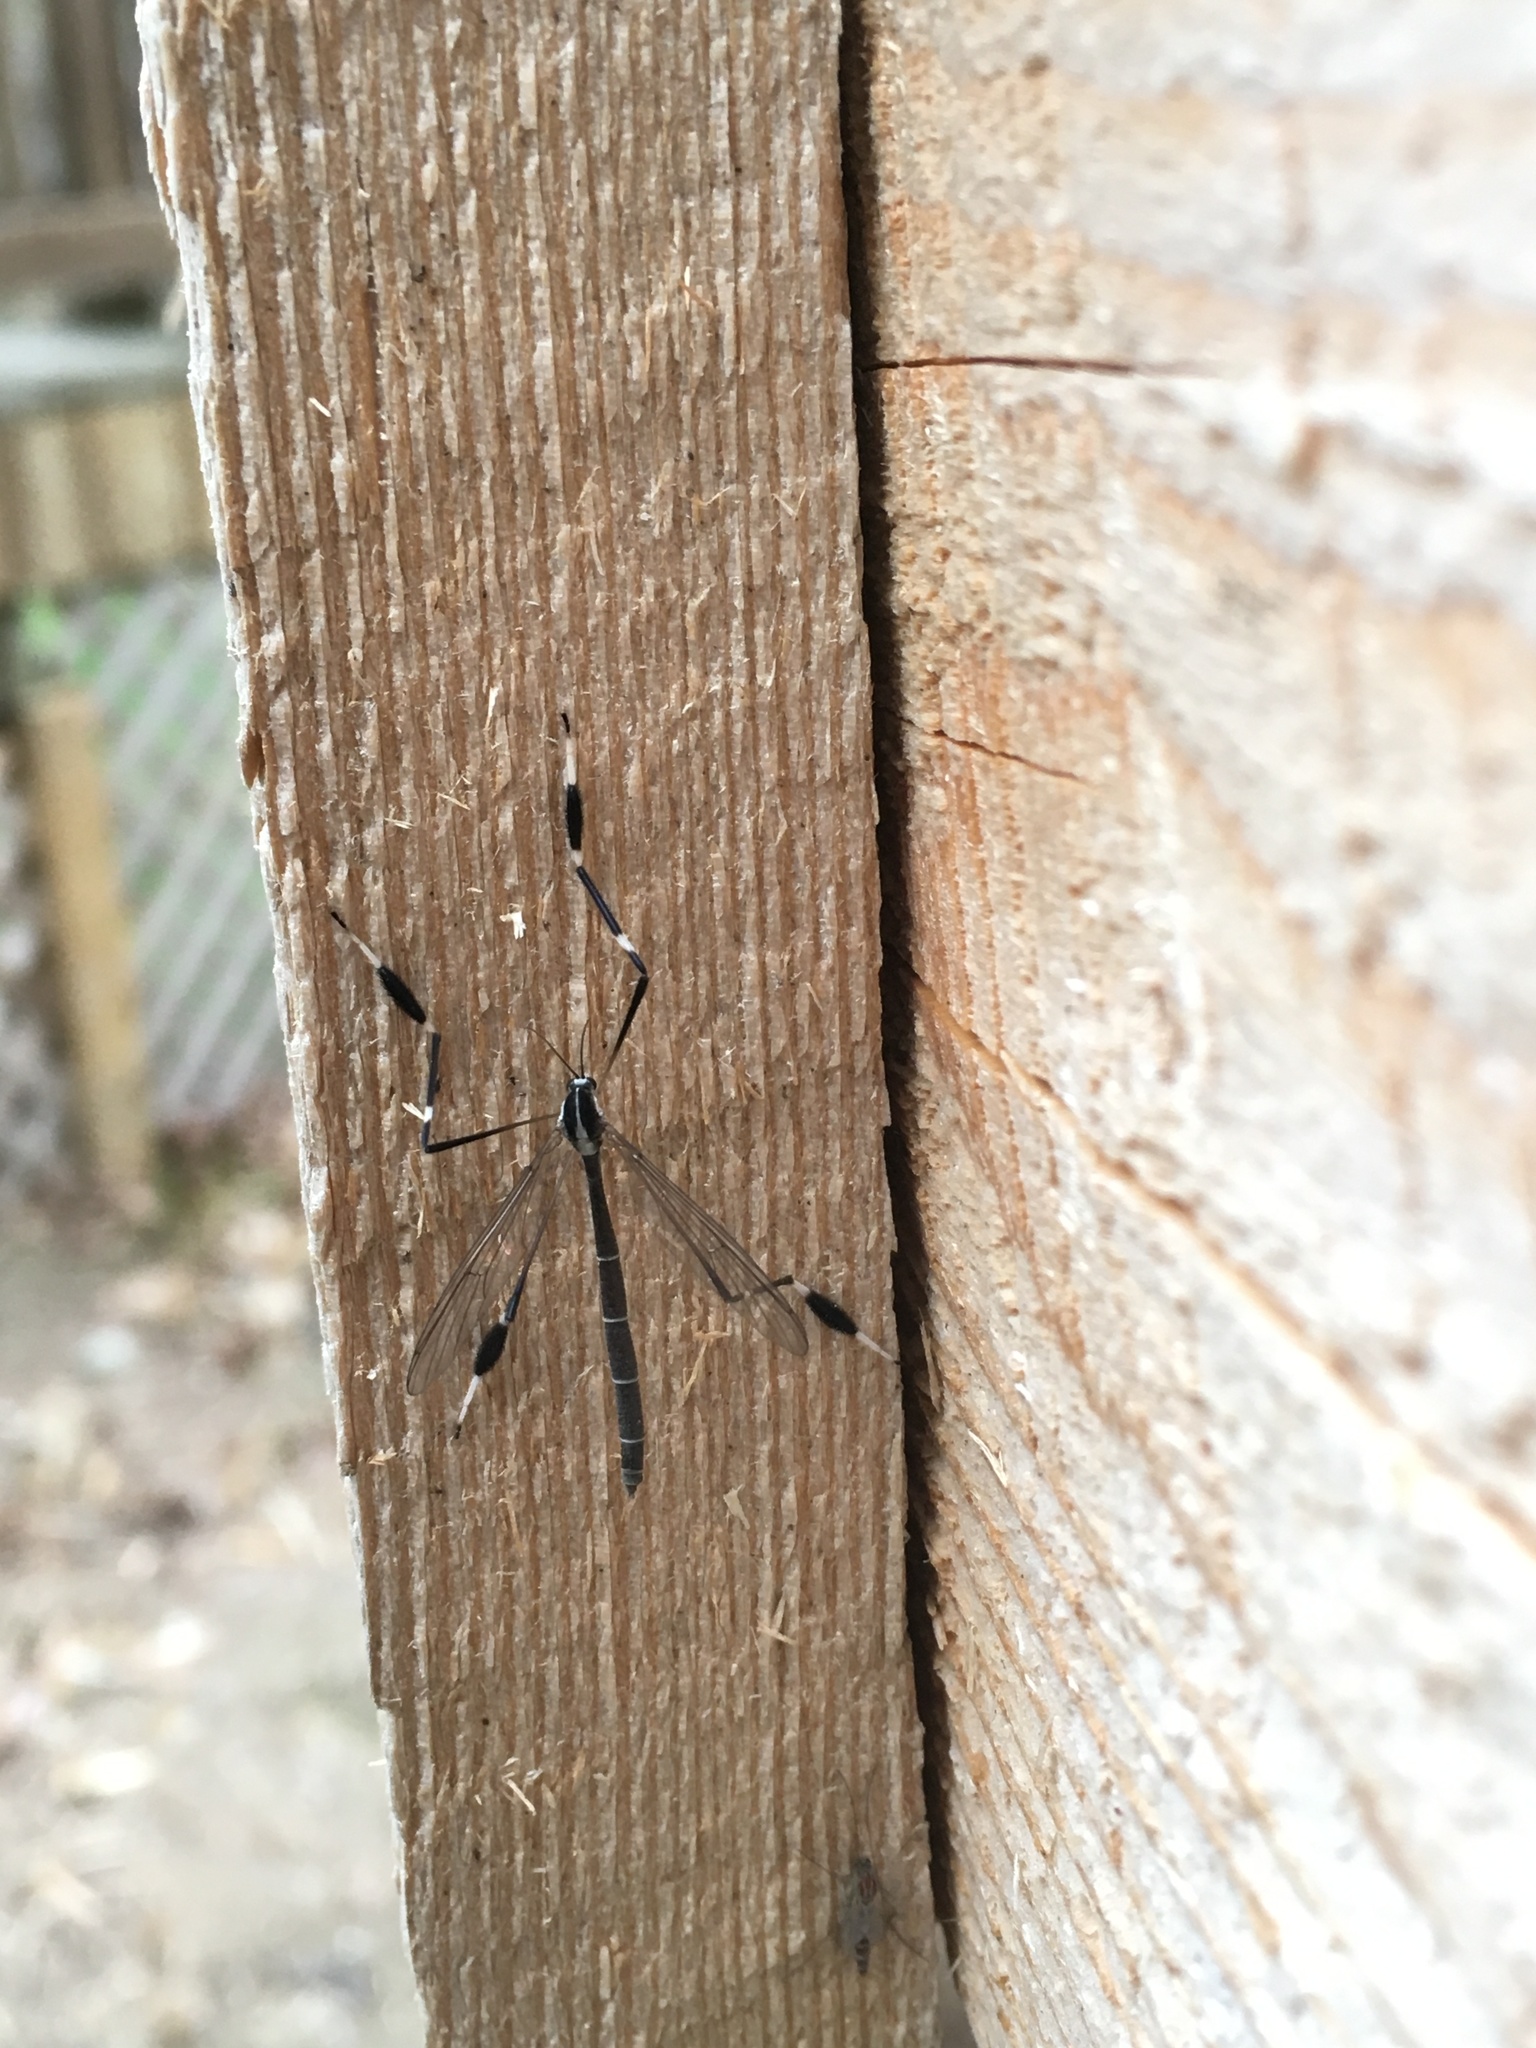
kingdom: Animalia
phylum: Arthropoda
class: Insecta
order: Diptera
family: Ptychopteridae
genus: Bittacomorpha
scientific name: Bittacomorpha clavipes
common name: Eastern phantom crane fly
